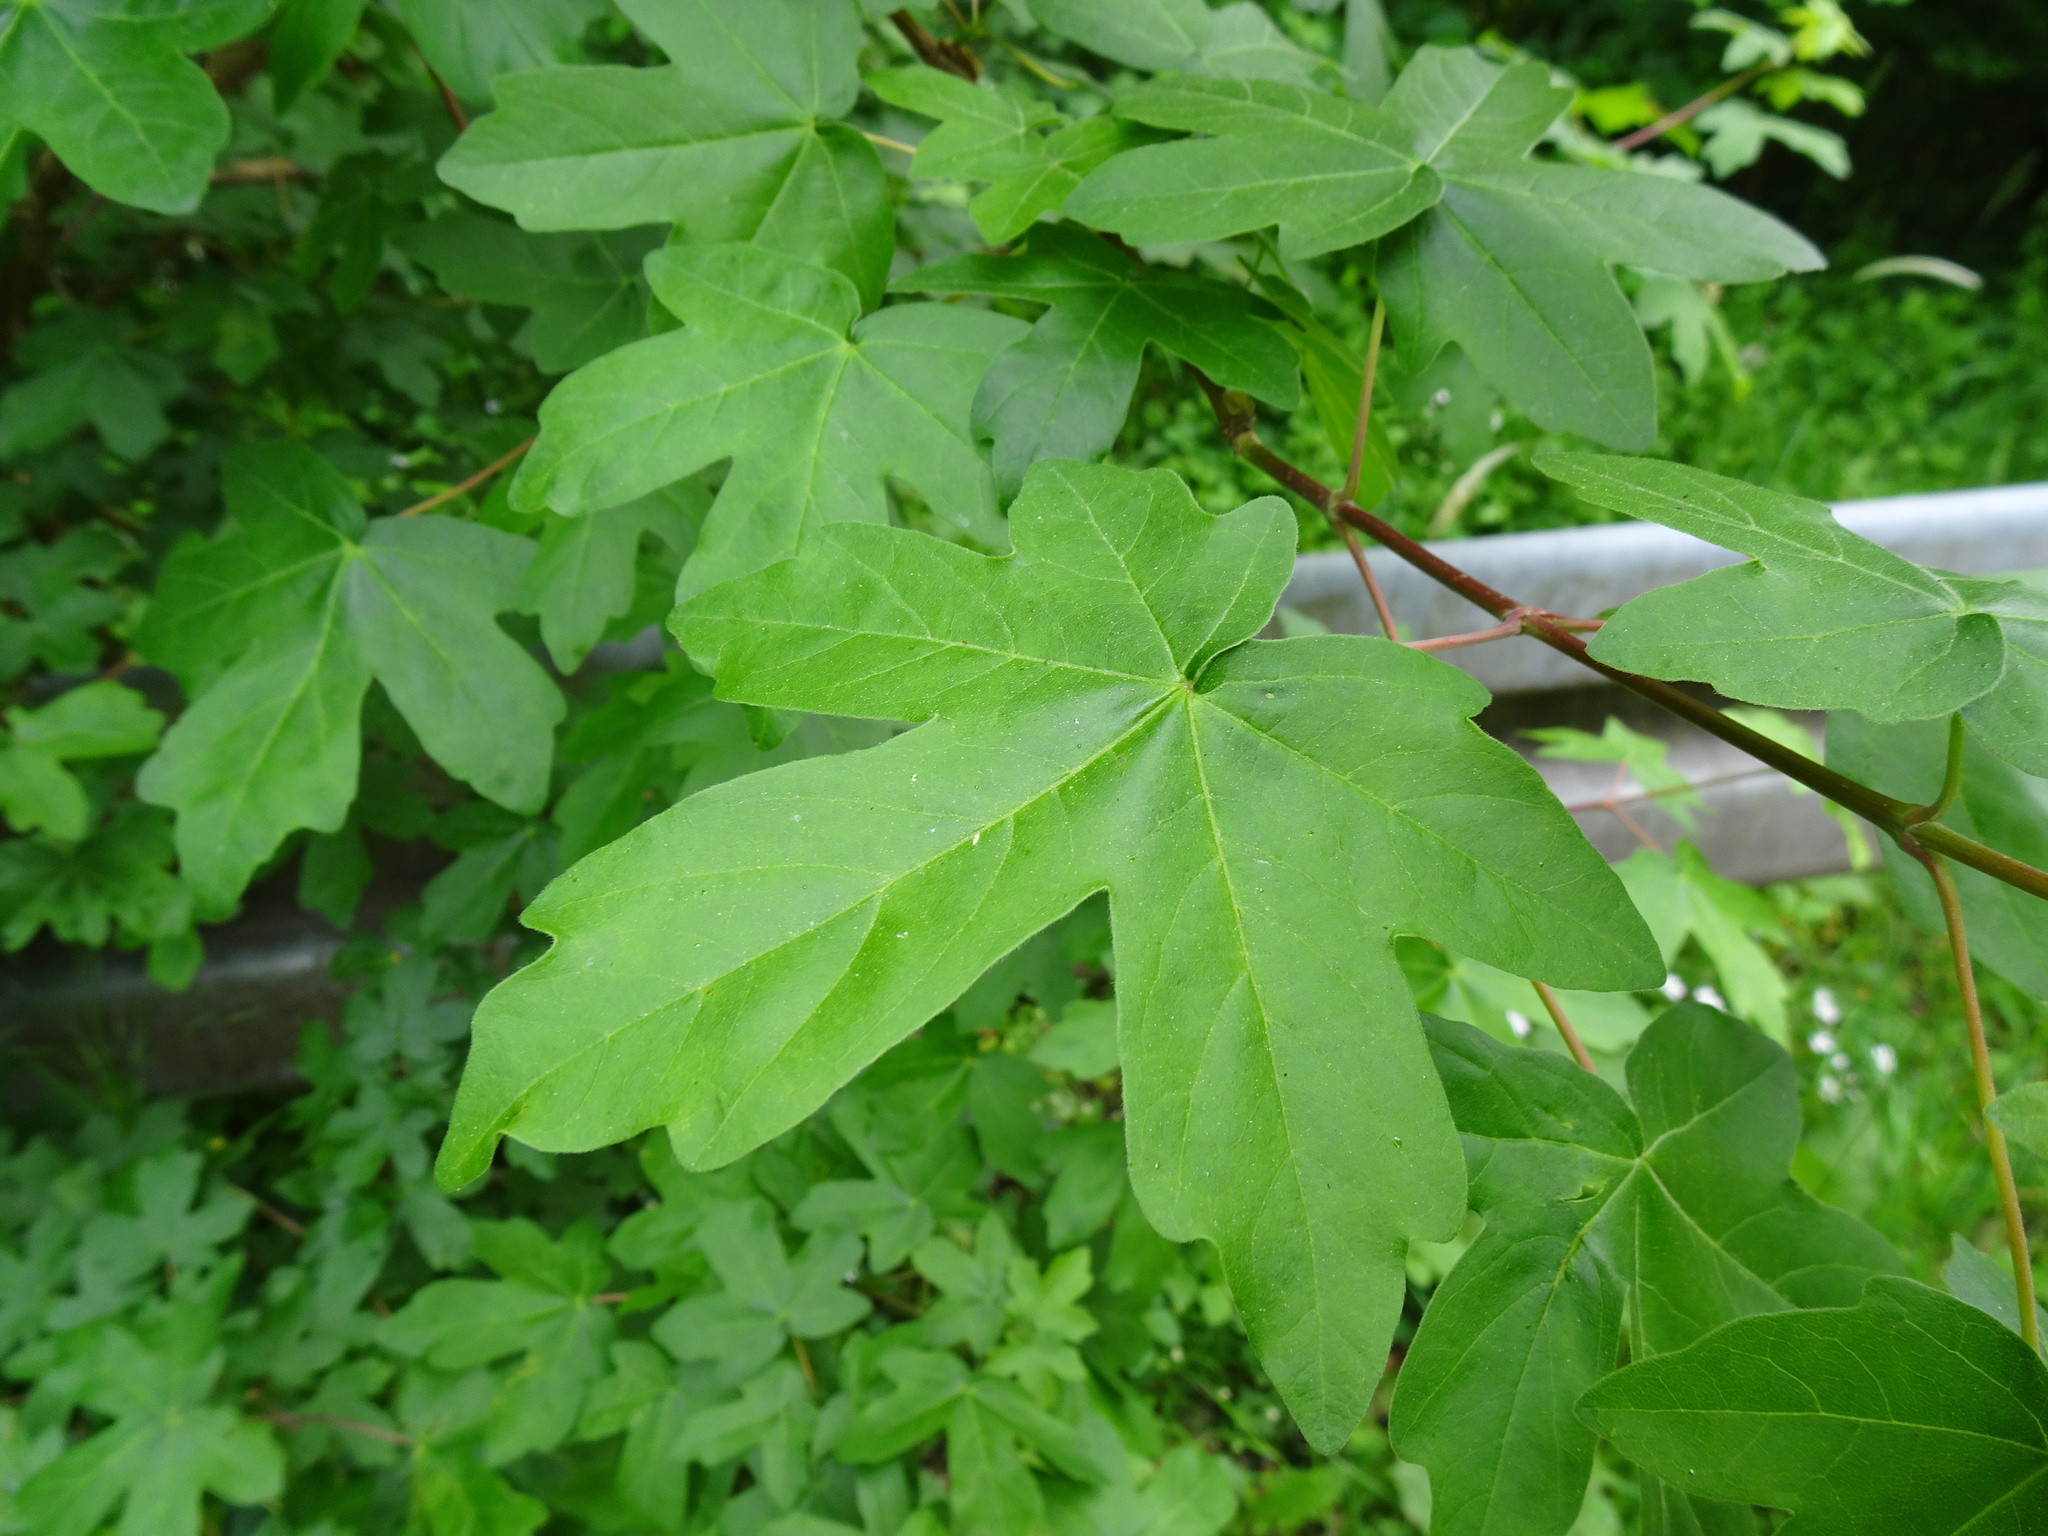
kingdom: Plantae
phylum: Tracheophyta
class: Magnoliopsida
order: Sapindales
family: Sapindaceae
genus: Acer
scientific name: Acer campestre
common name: Field maple
